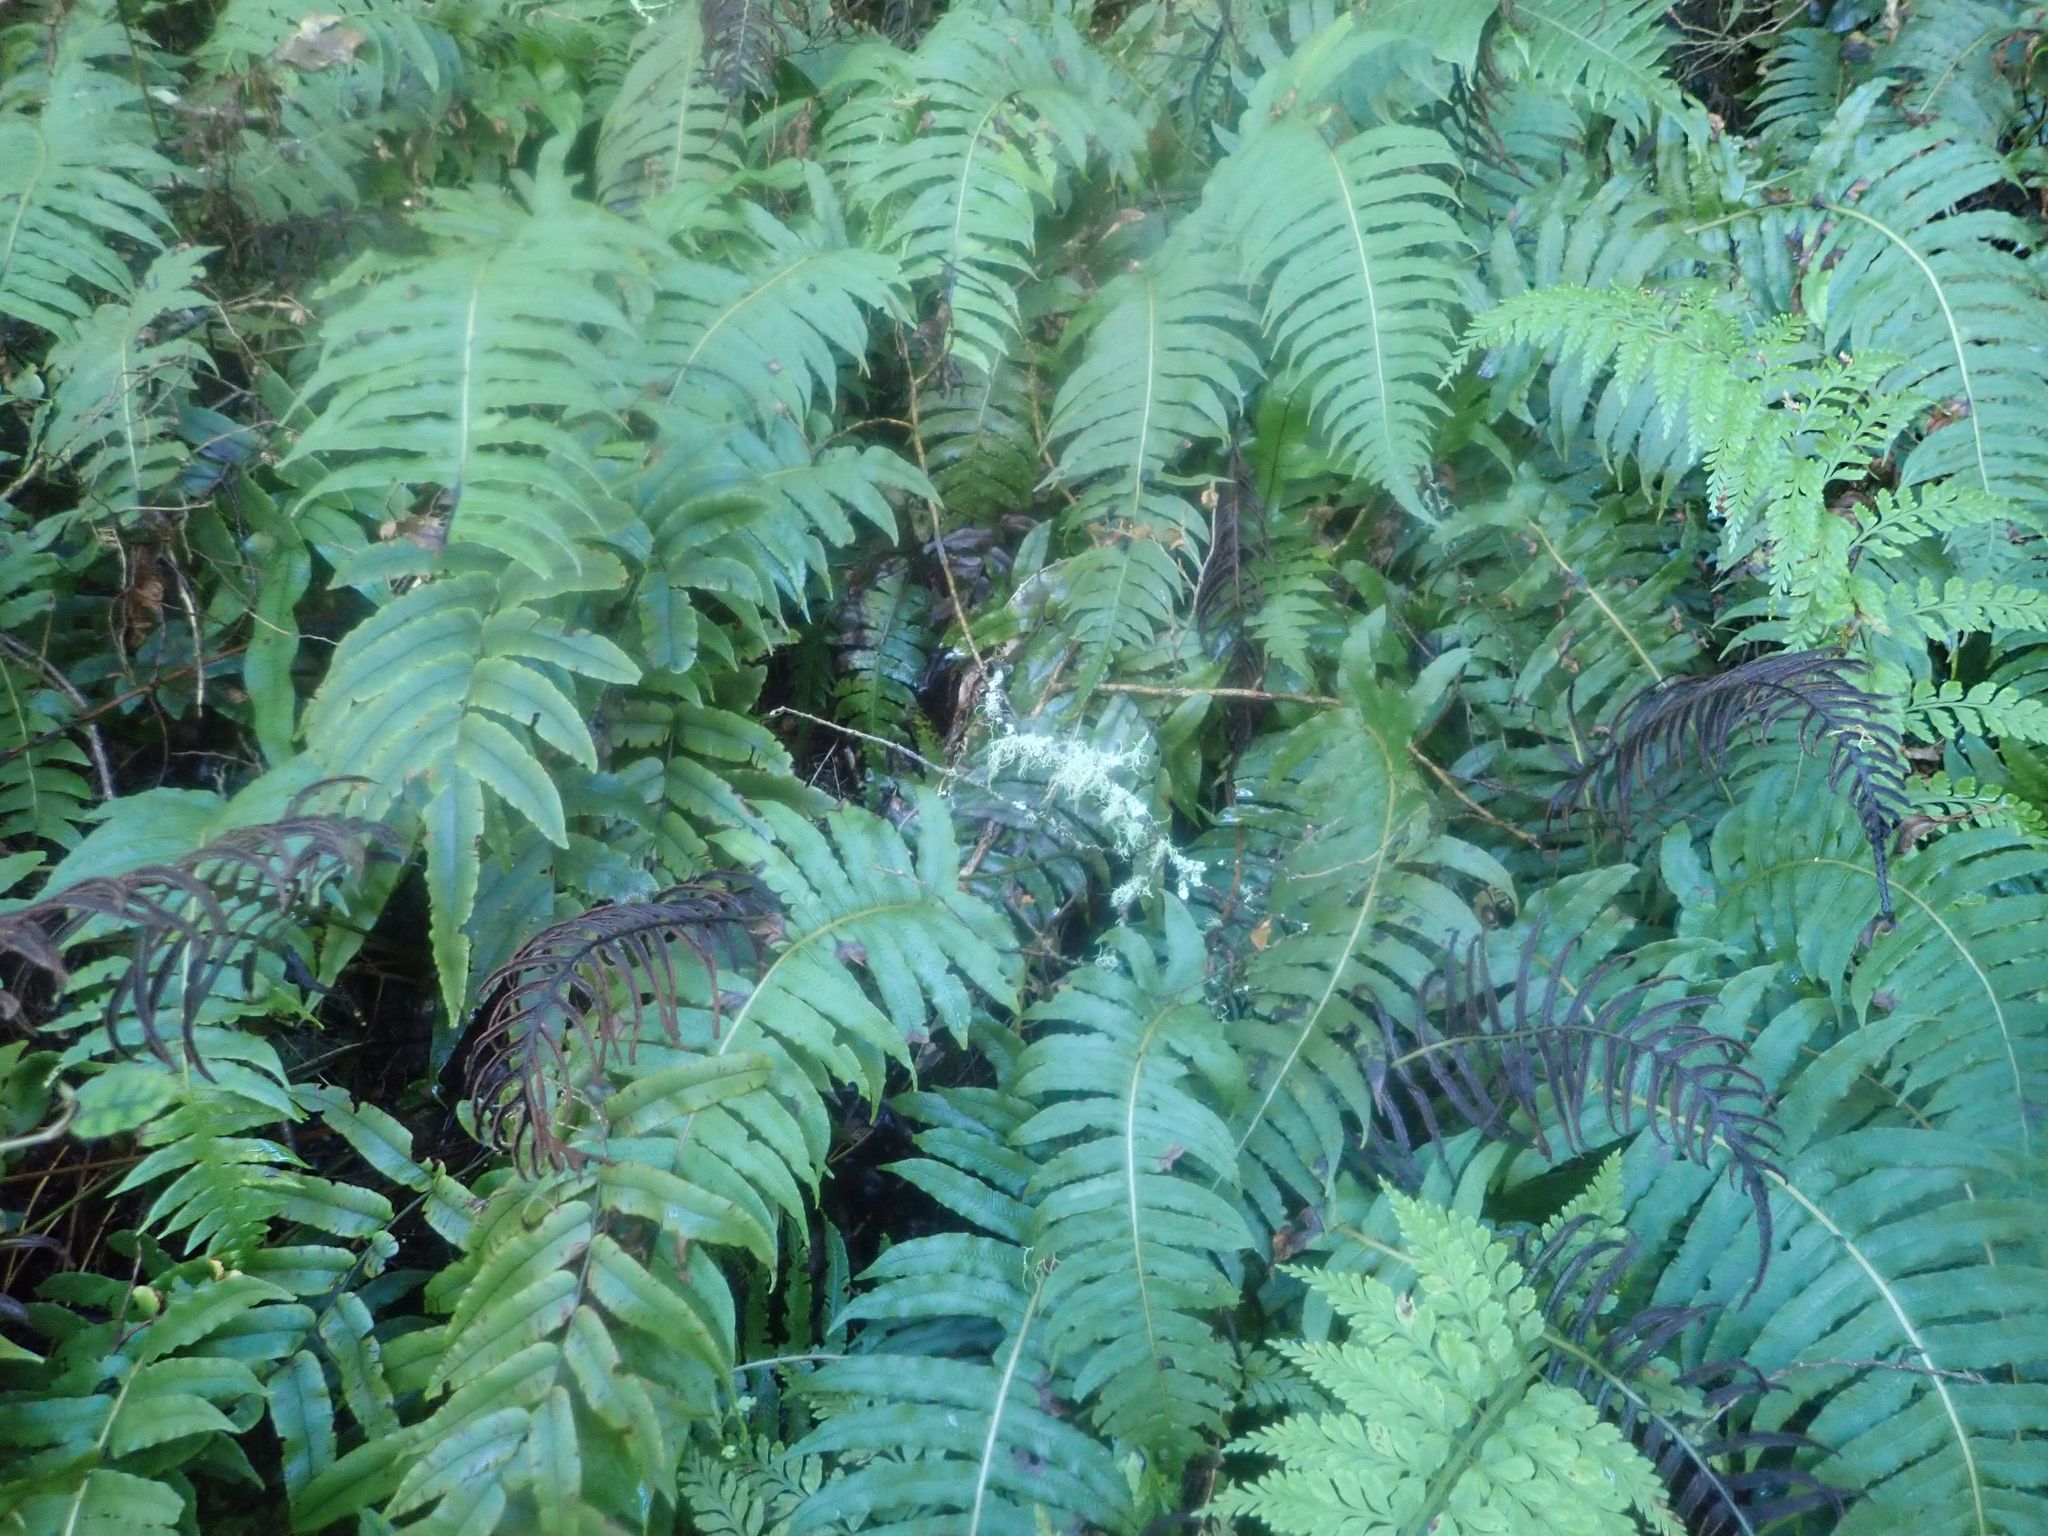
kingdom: Plantae
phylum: Tracheophyta
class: Polypodiopsida
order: Polypodiales
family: Blechnaceae
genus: Cranfillia
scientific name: Cranfillia deltoides
